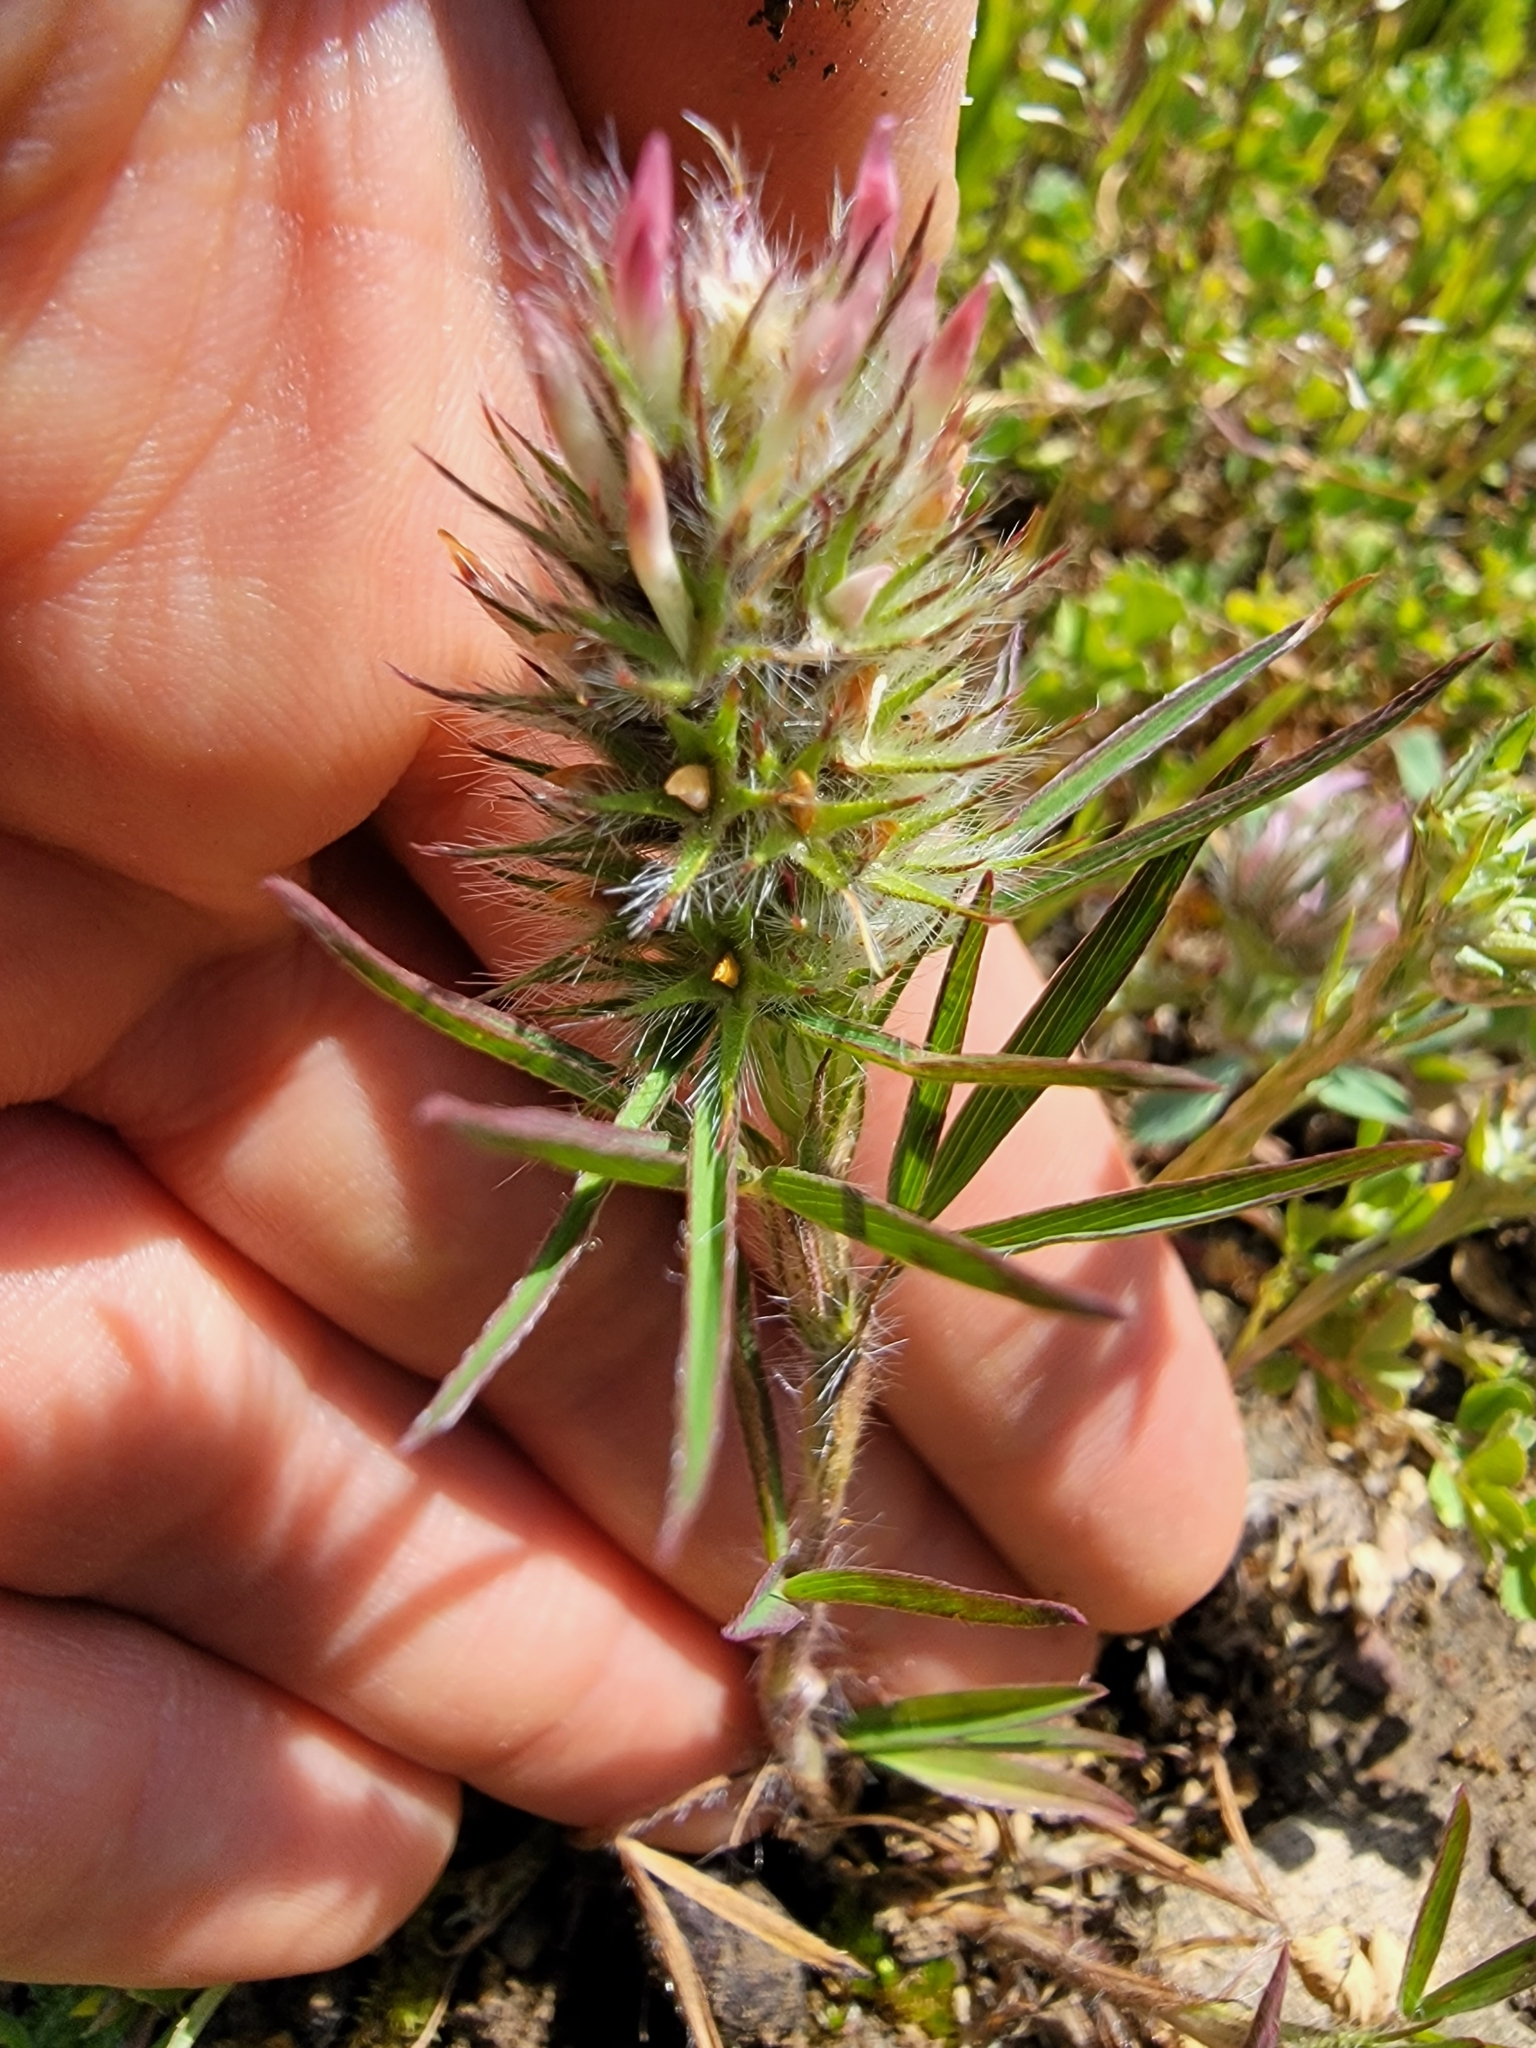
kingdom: Plantae
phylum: Tracheophyta
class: Magnoliopsida
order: Fabales
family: Fabaceae
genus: Trifolium
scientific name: Trifolium angustifolium
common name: Narrow clover
